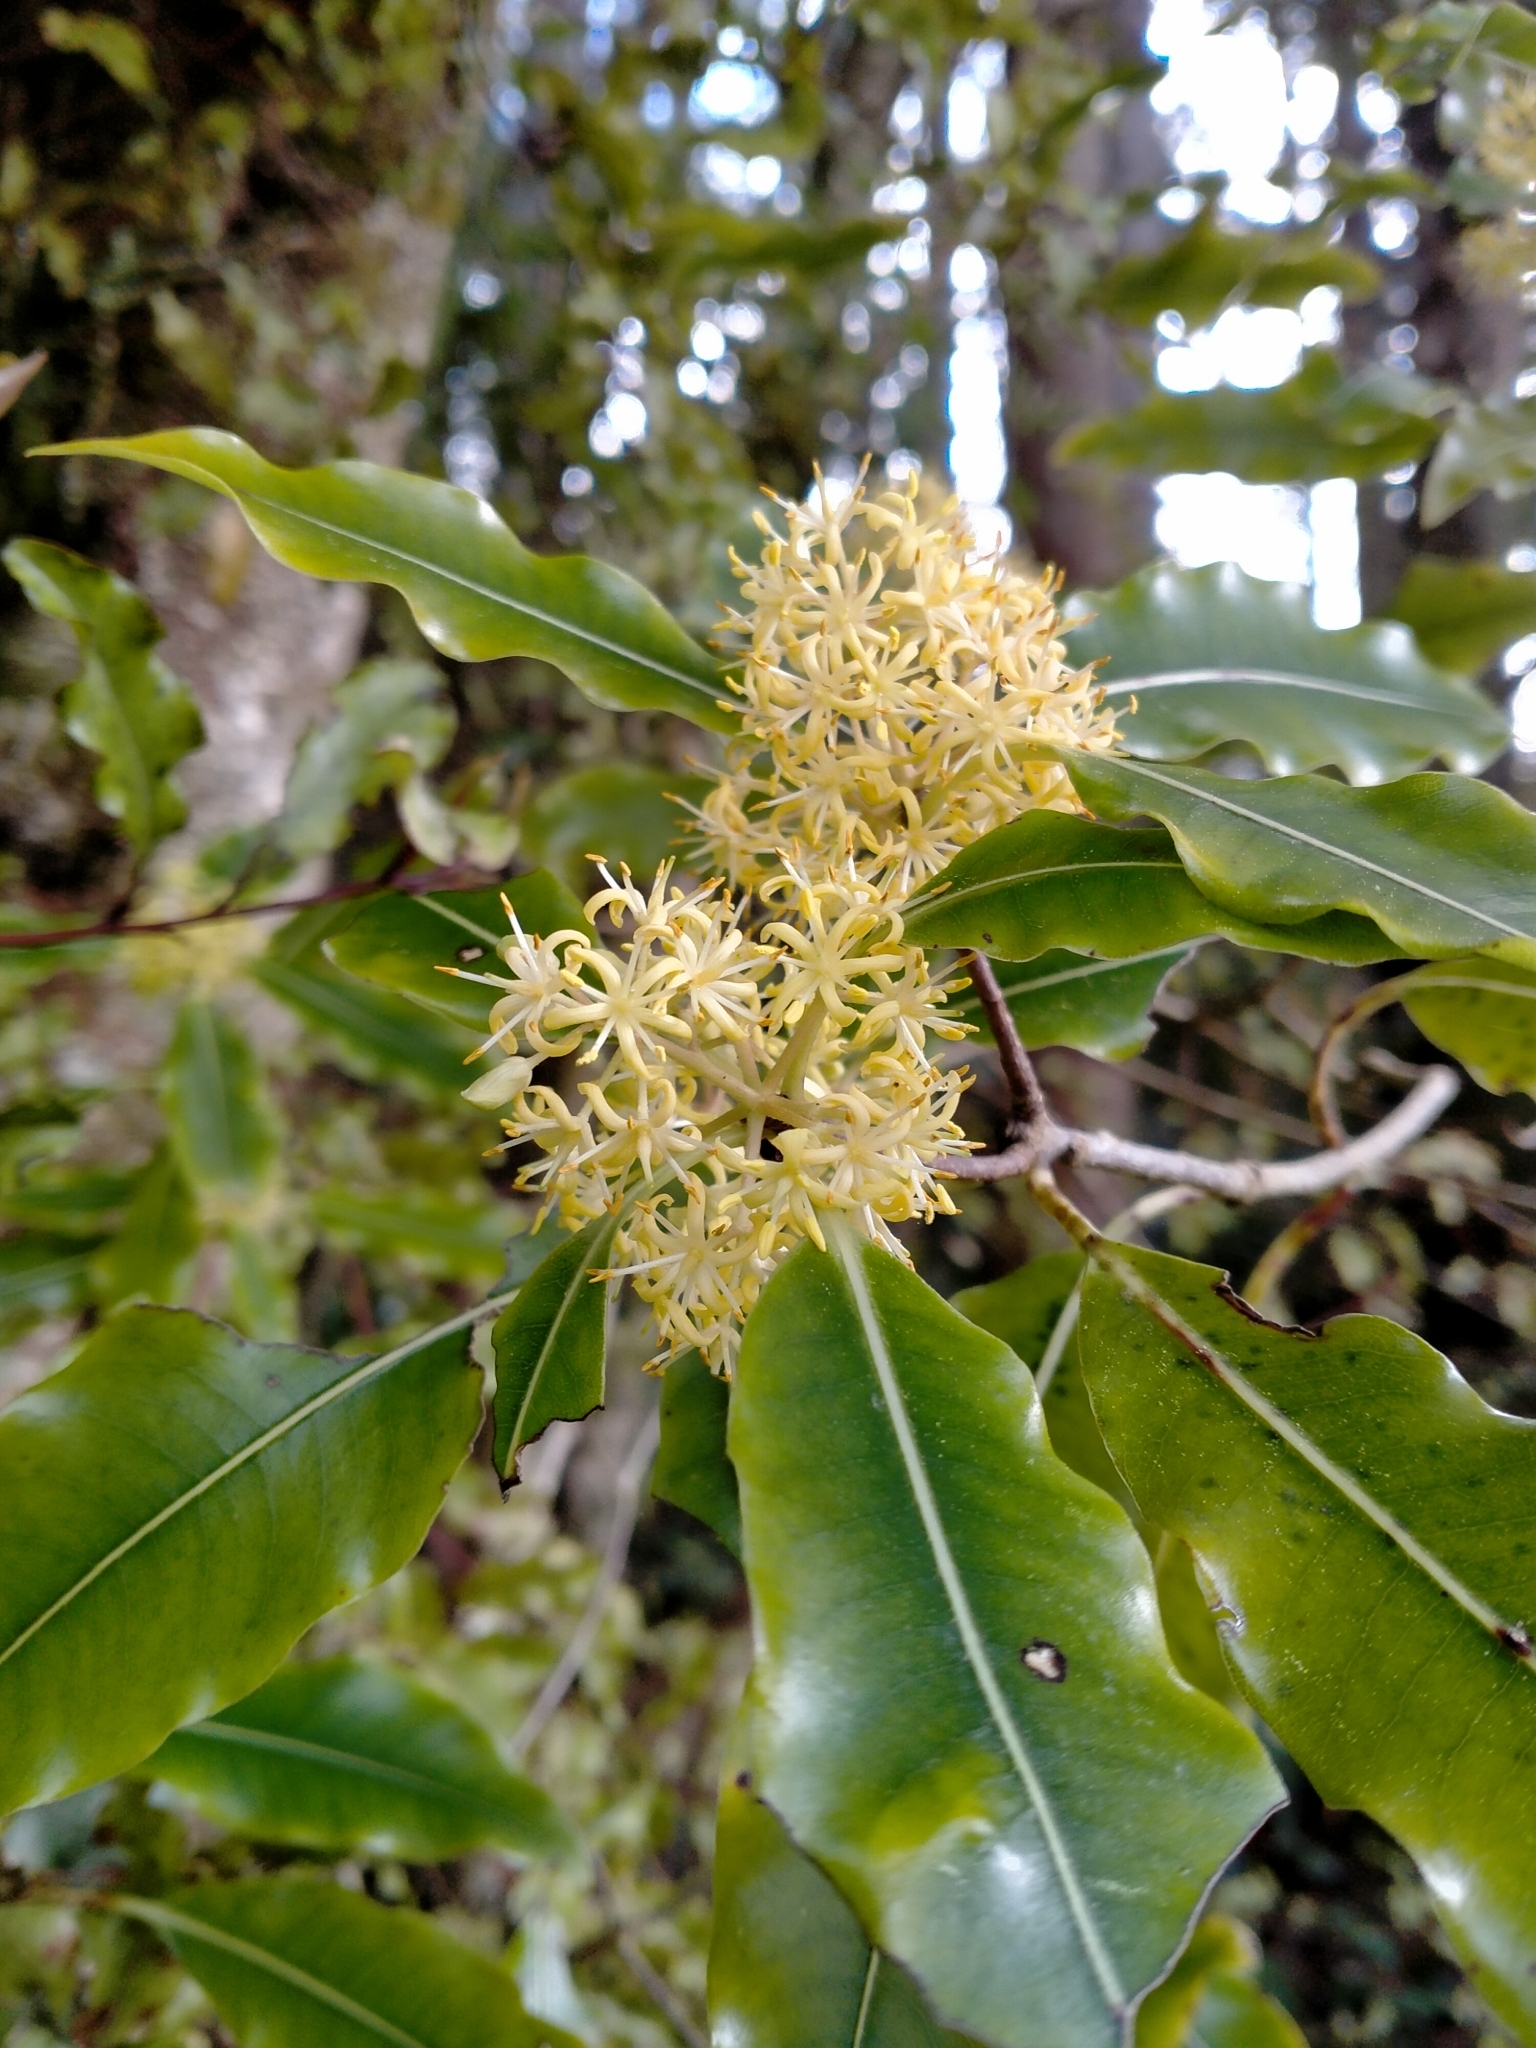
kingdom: Plantae
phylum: Tracheophyta
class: Magnoliopsida
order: Apiales
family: Pittosporaceae
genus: Pittosporum
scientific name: Pittosporum eugenioides
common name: Lemonwood
